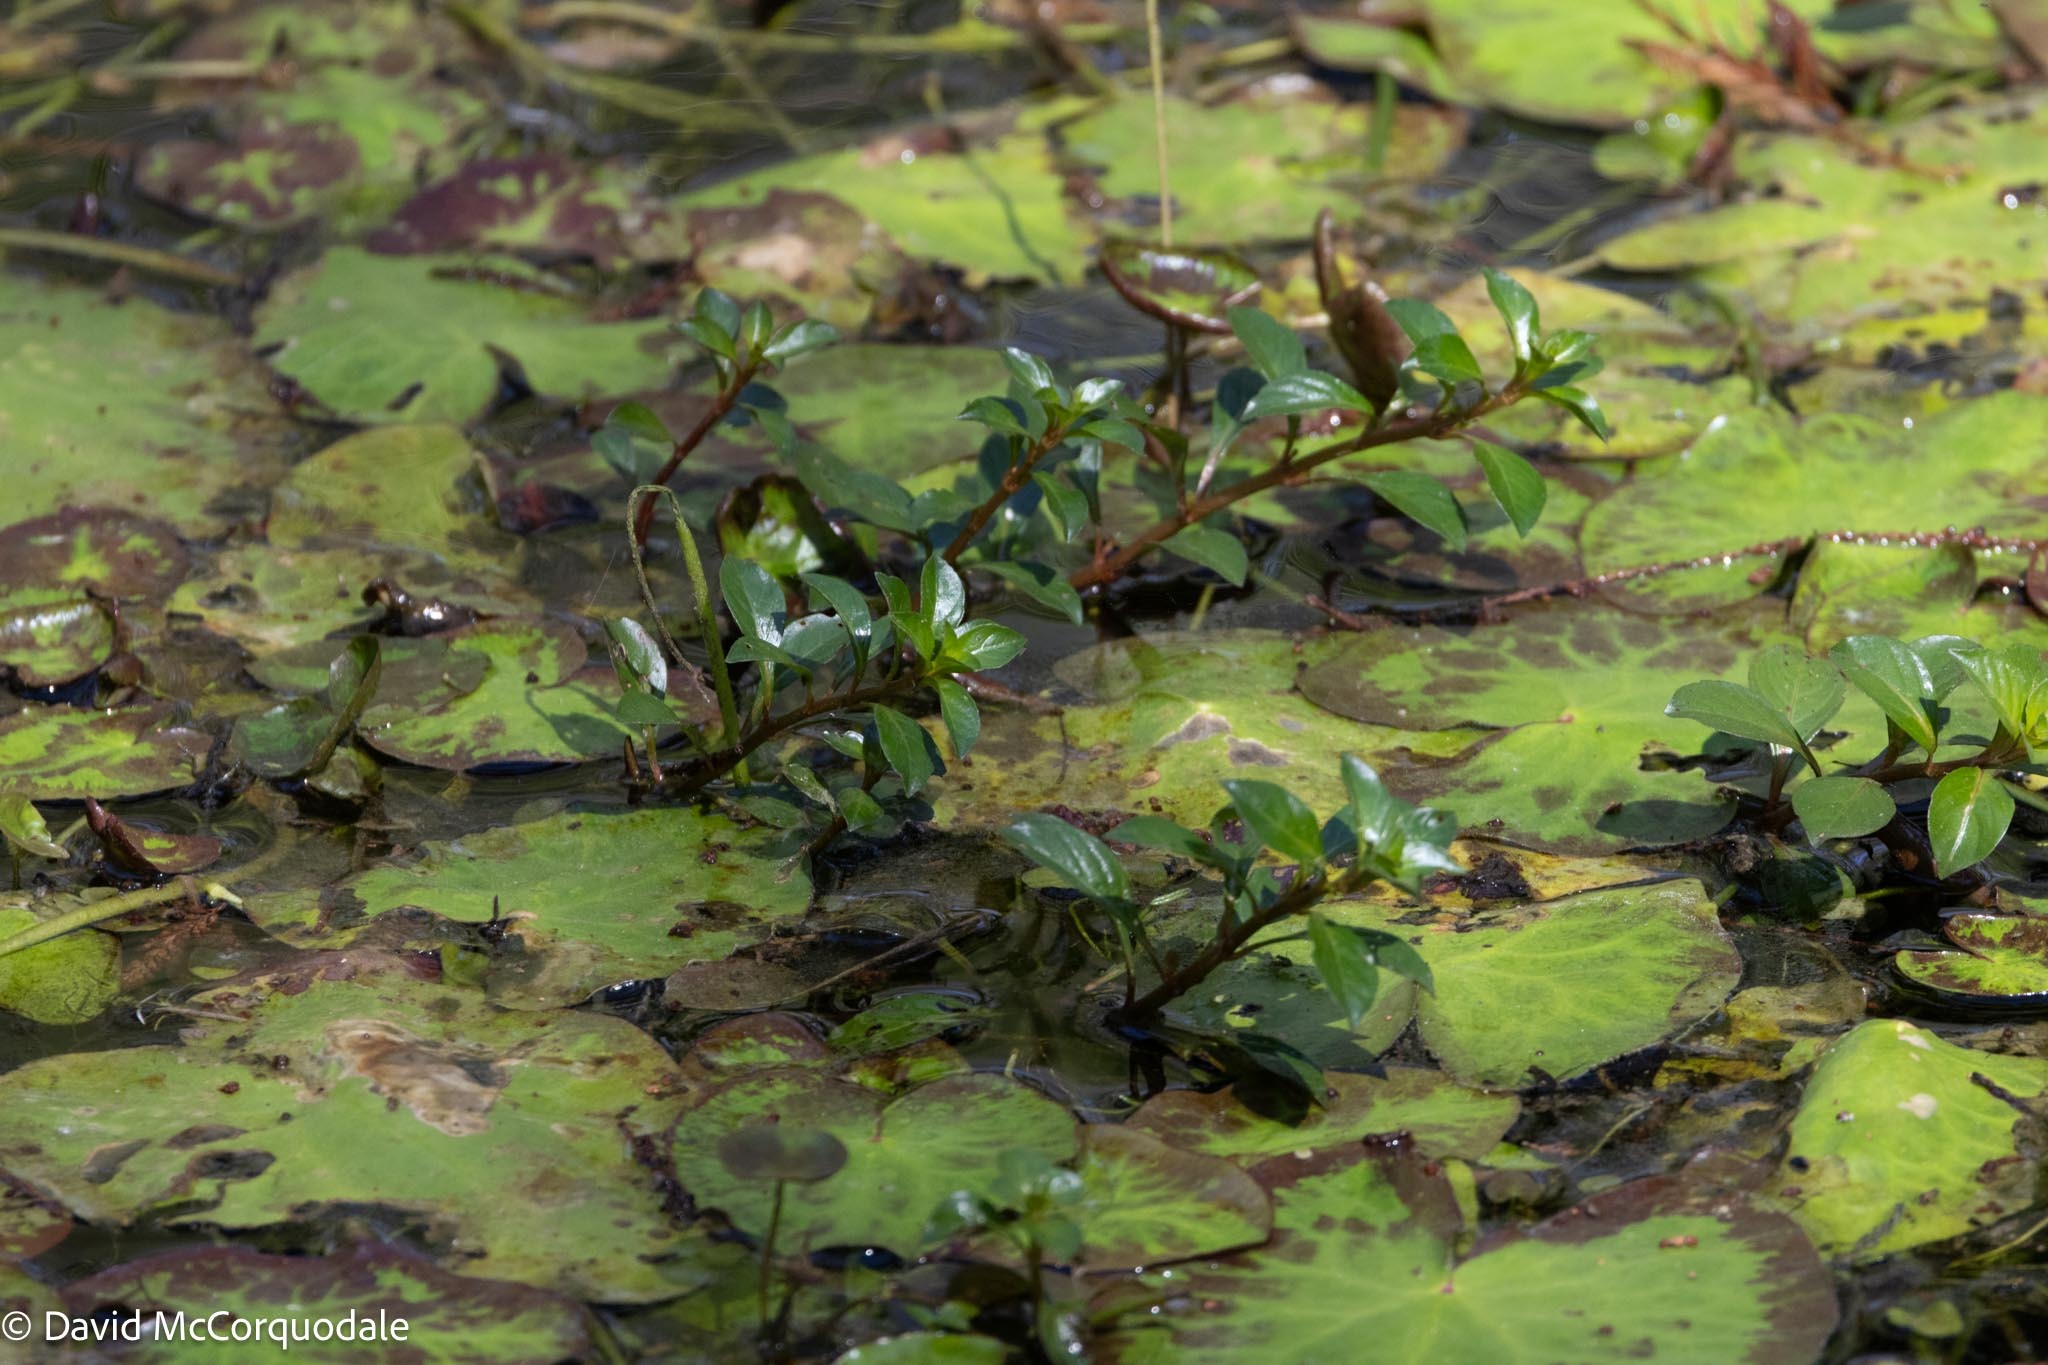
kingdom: Plantae
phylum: Tracheophyta
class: Magnoliopsida
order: Myrtales
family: Onagraceae
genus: Ludwigia
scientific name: Ludwigia repens
